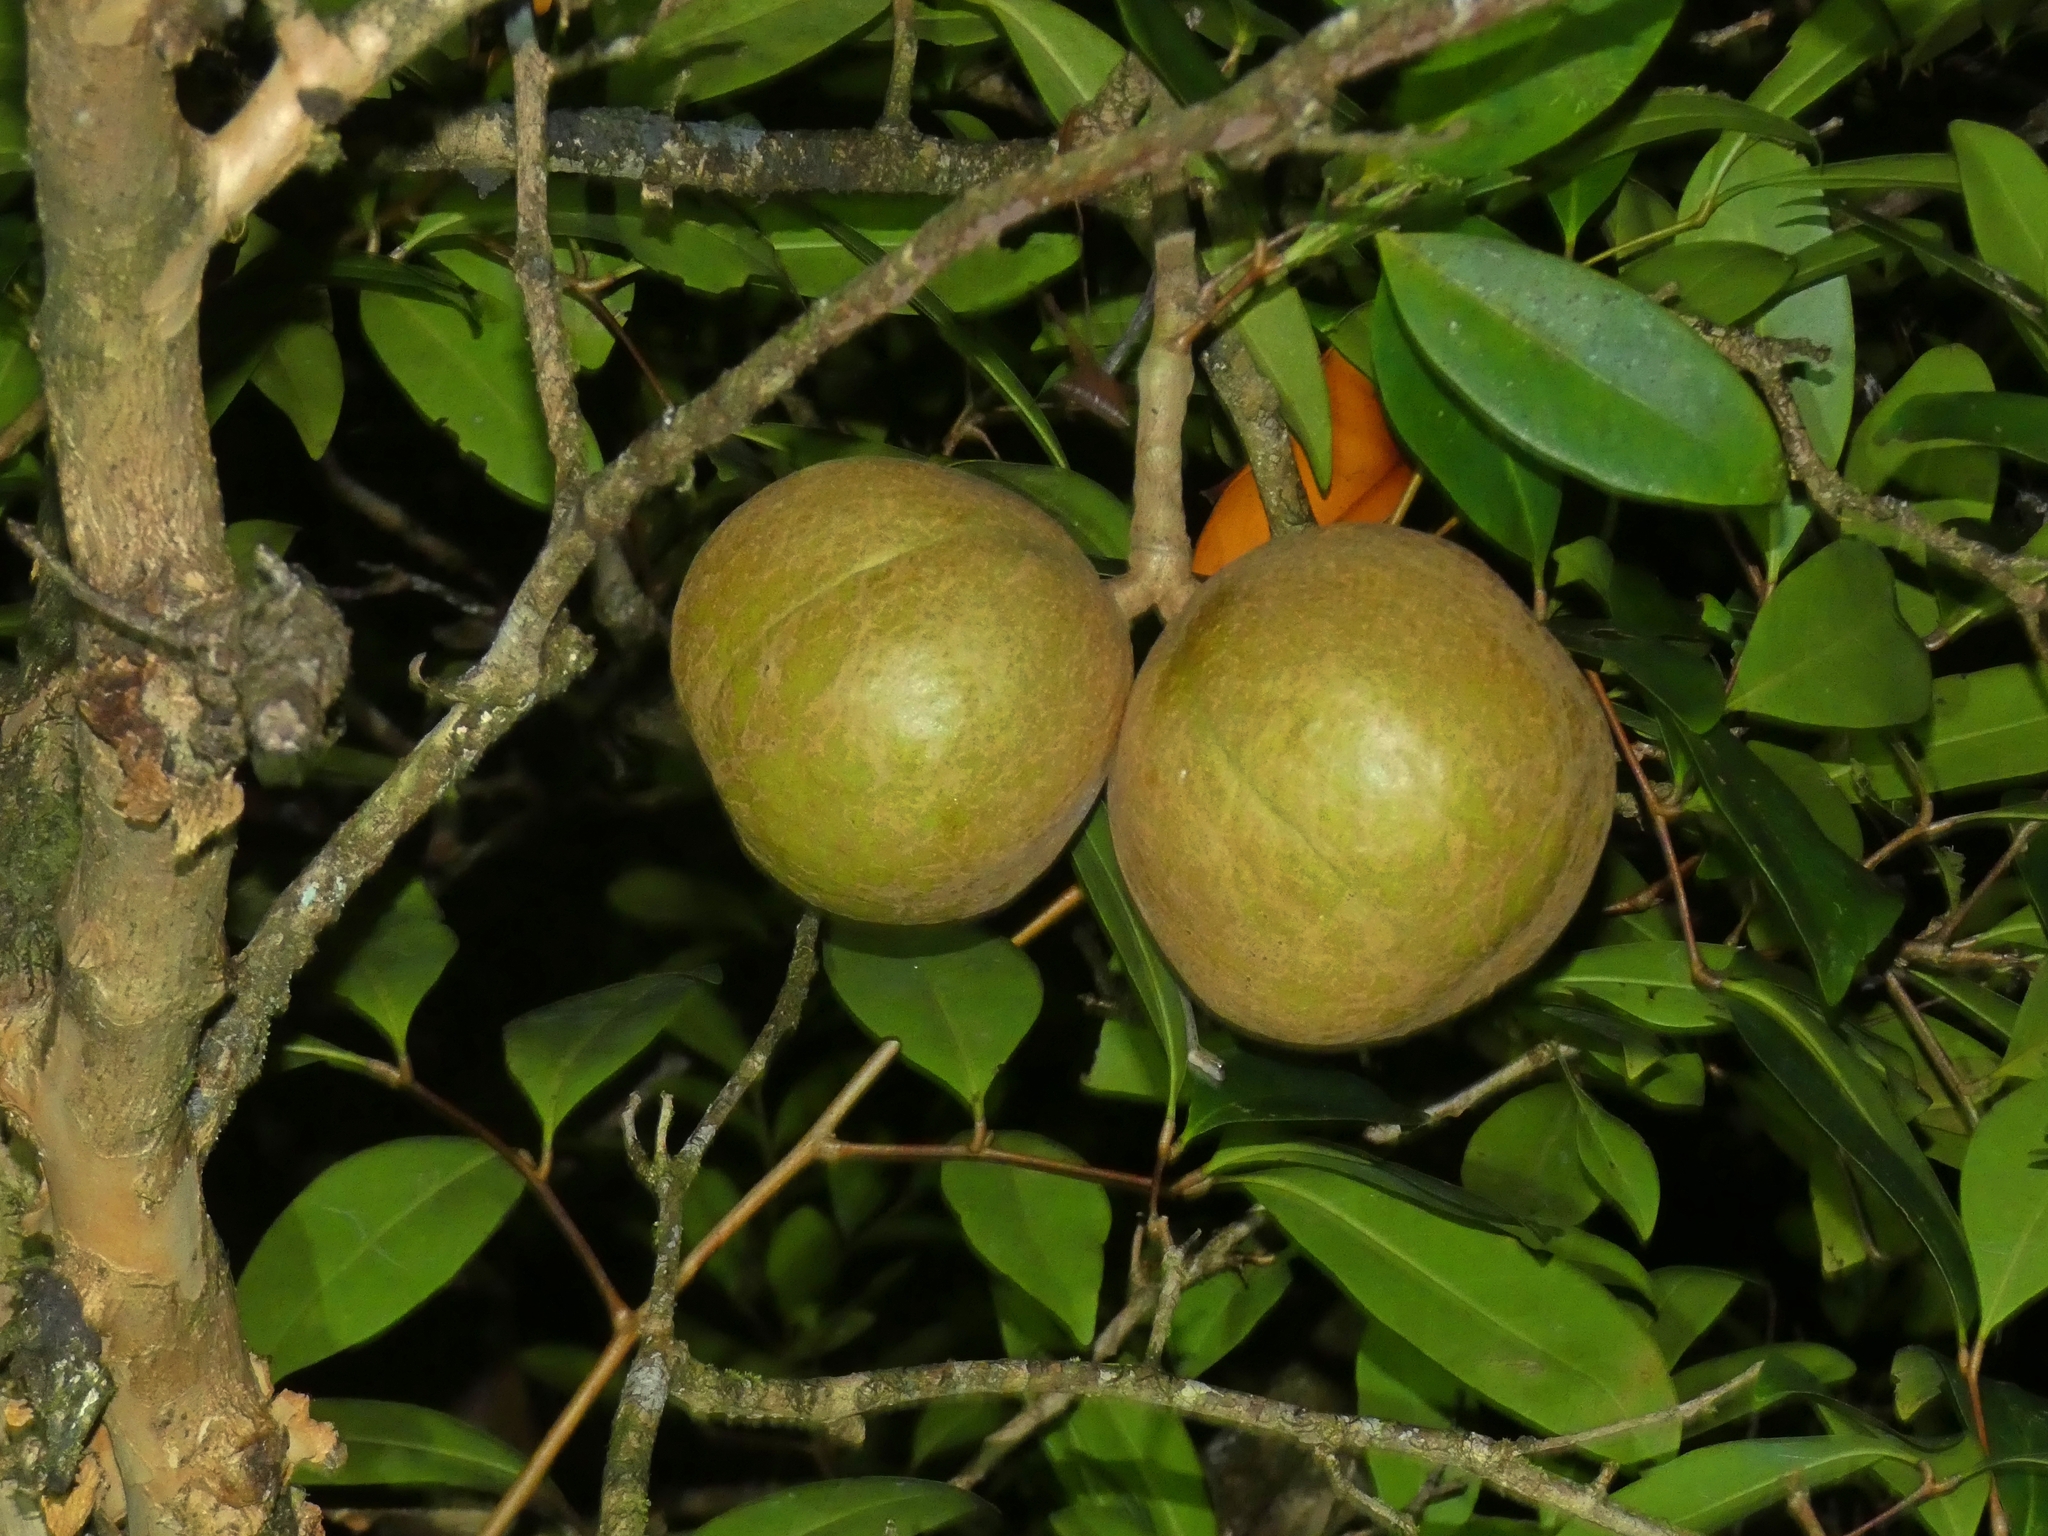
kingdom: Plantae
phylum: Tracheophyta
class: Magnoliopsida
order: Sapindales
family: Meliaceae
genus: Xylocarpus
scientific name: Xylocarpus granatum
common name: Apple mangrove
